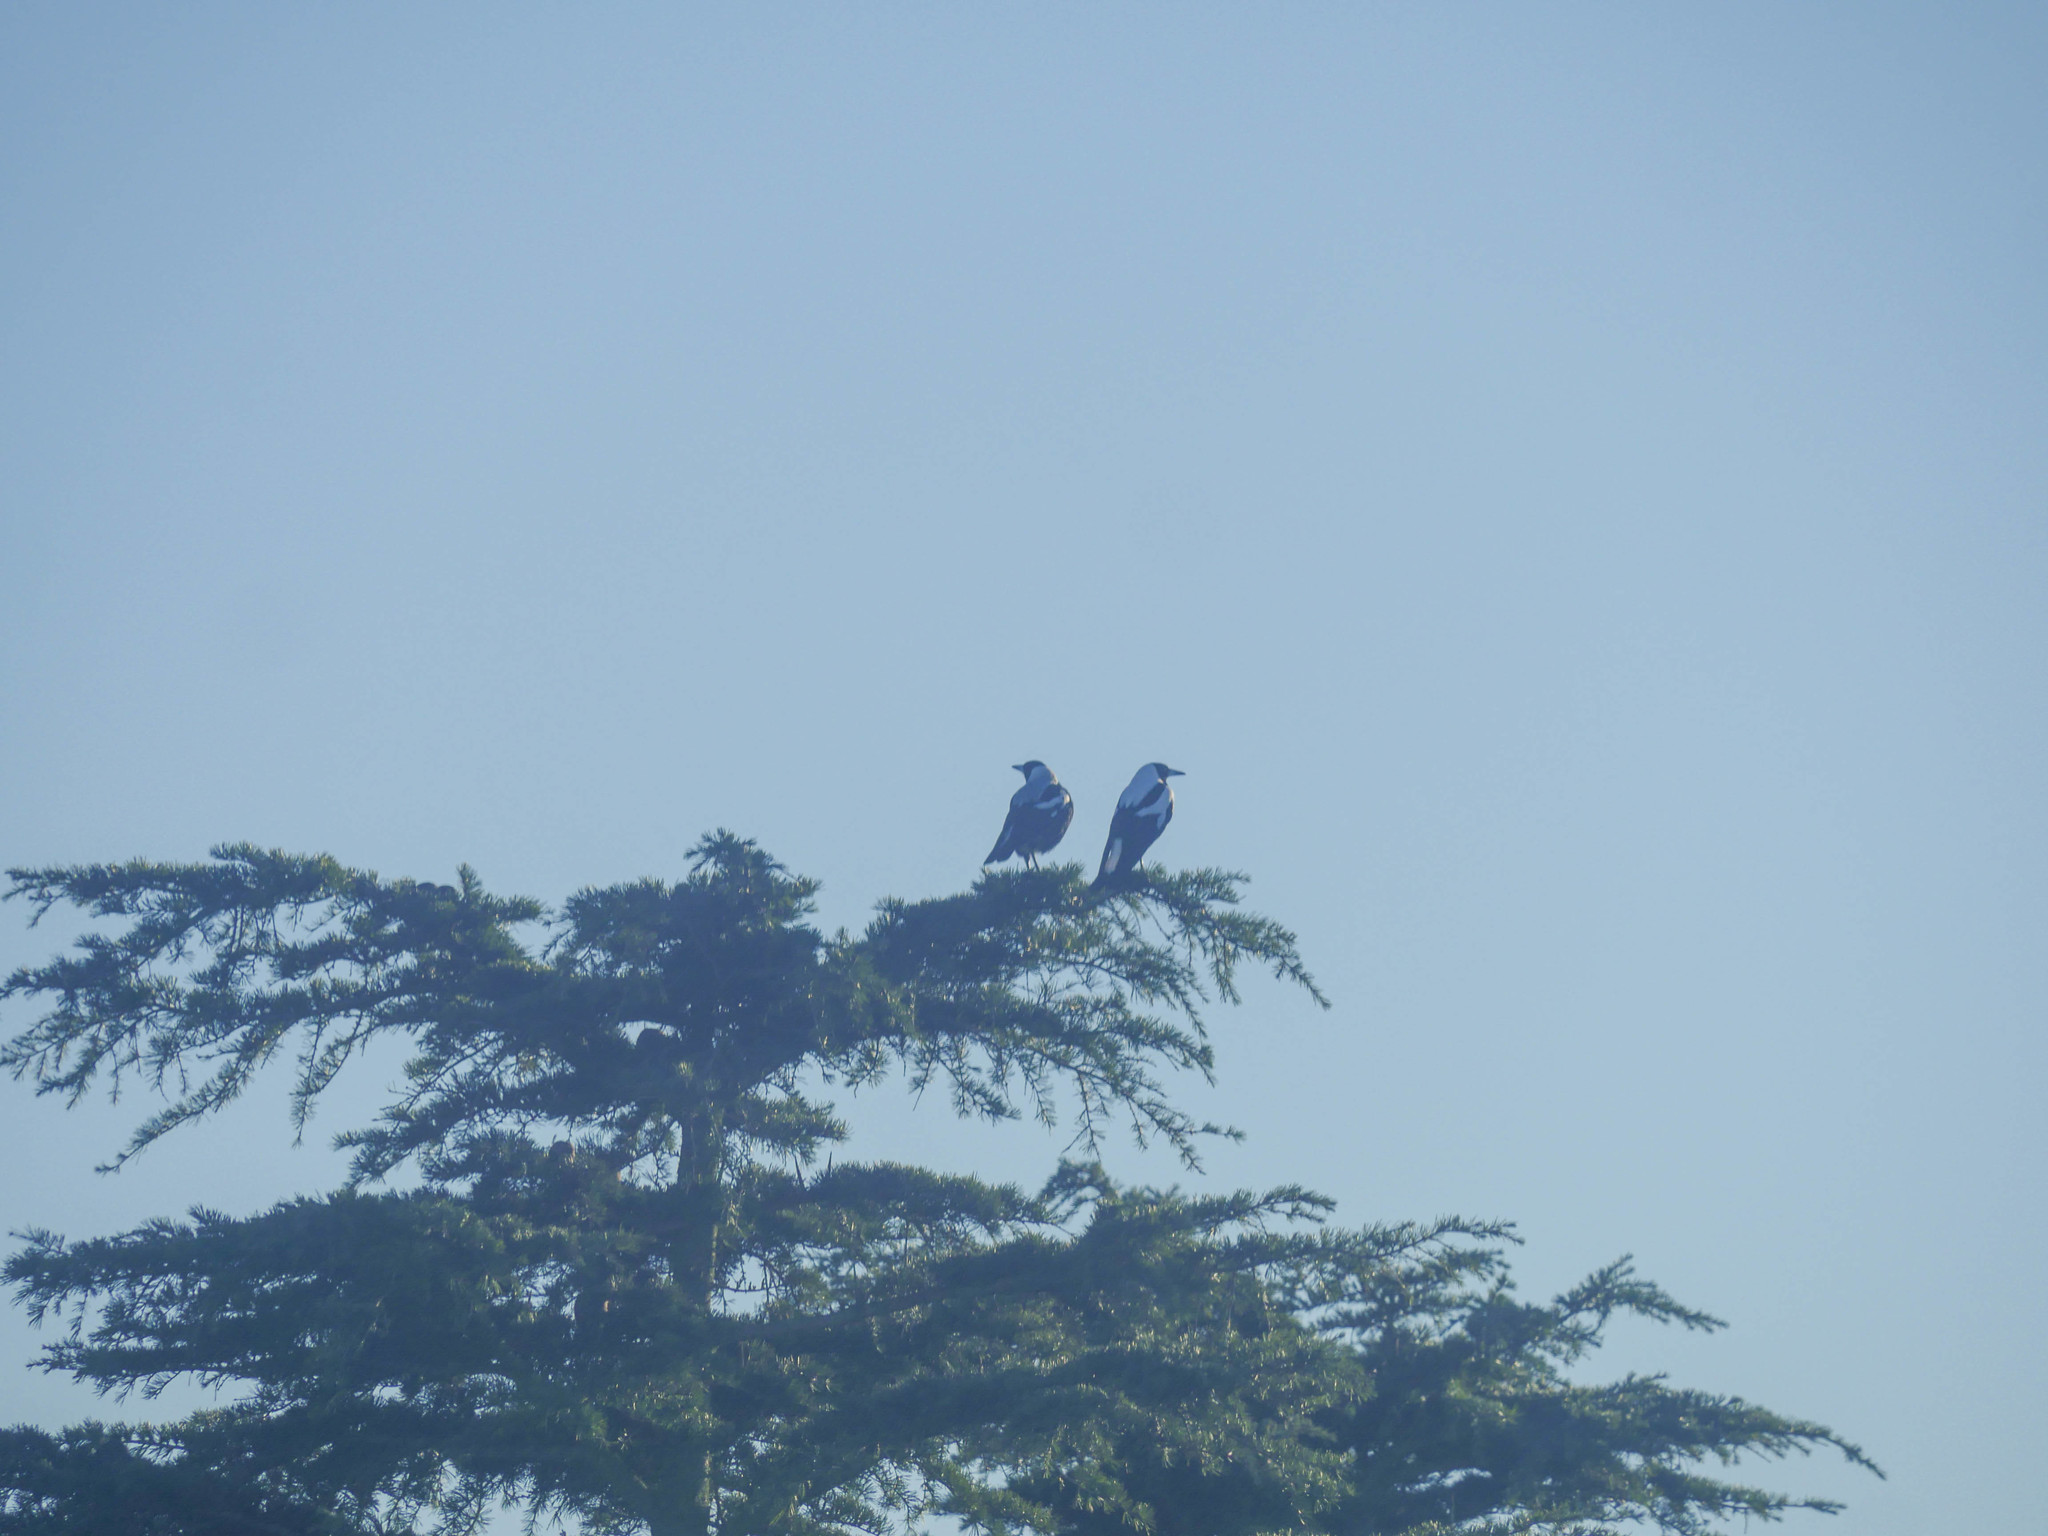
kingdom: Animalia
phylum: Chordata
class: Aves
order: Passeriformes
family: Cracticidae
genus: Gymnorhina
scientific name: Gymnorhina tibicen
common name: Australian magpie
